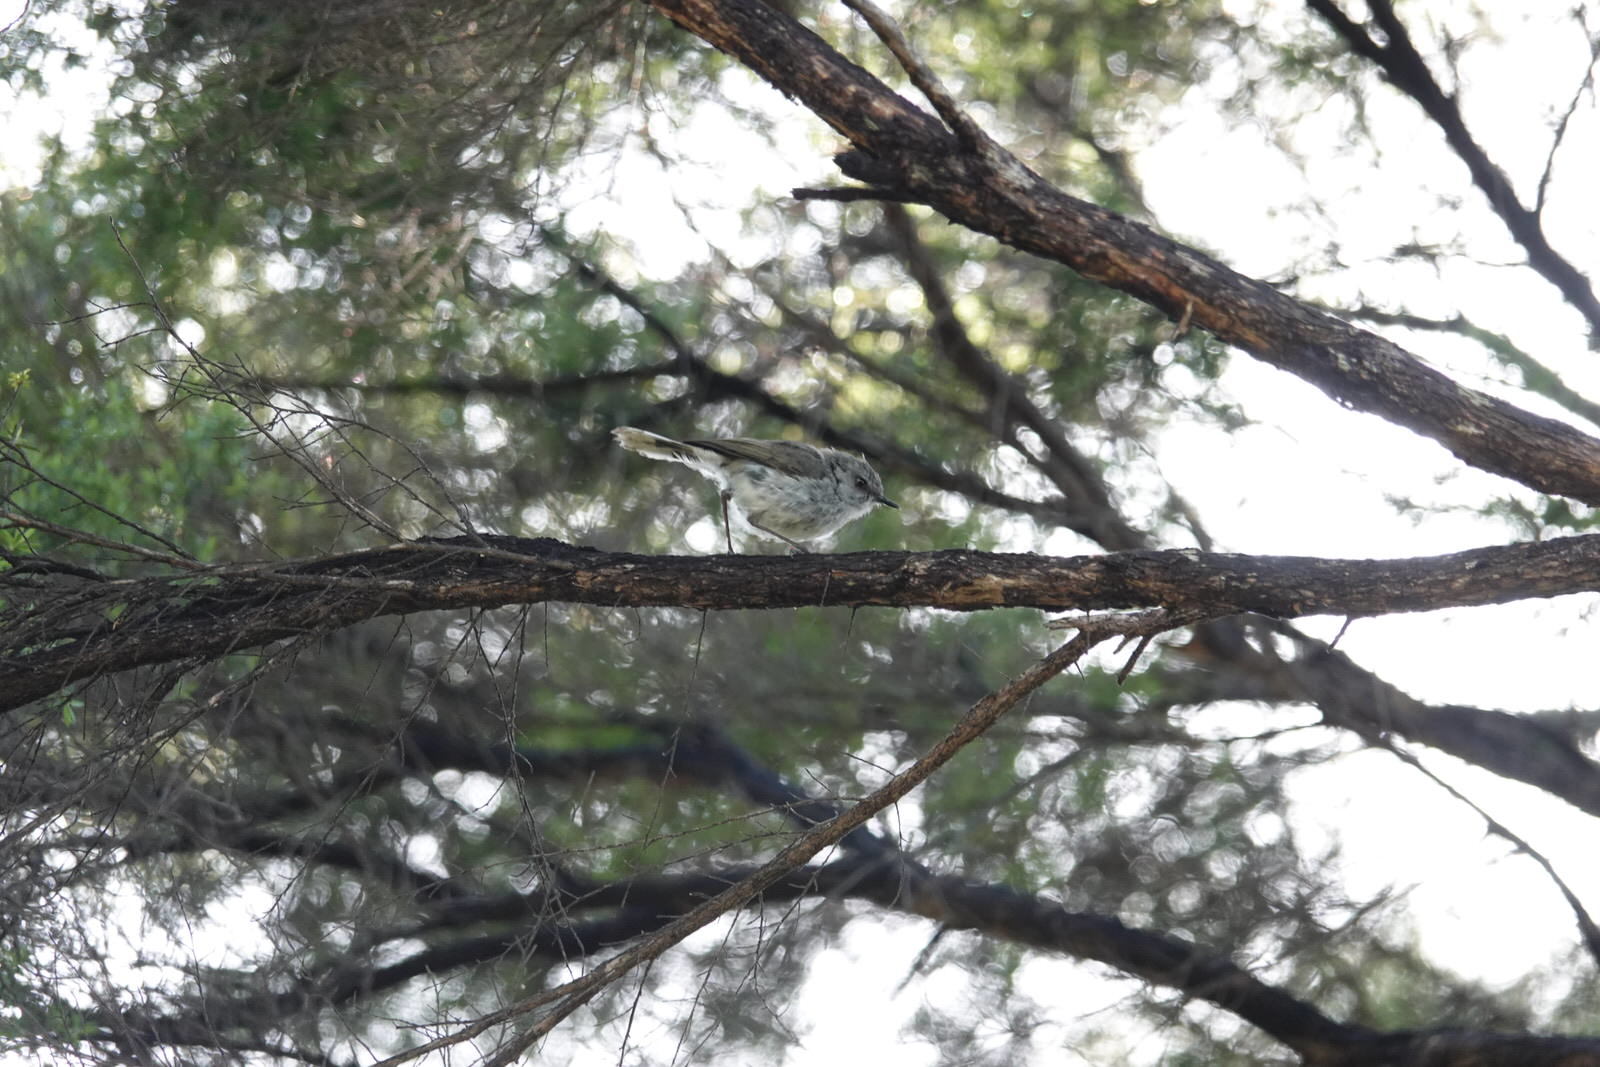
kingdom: Animalia
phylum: Chordata
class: Aves
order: Passeriformes
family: Acanthizidae
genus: Gerygone
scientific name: Gerygone igata
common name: Grey gerygone
